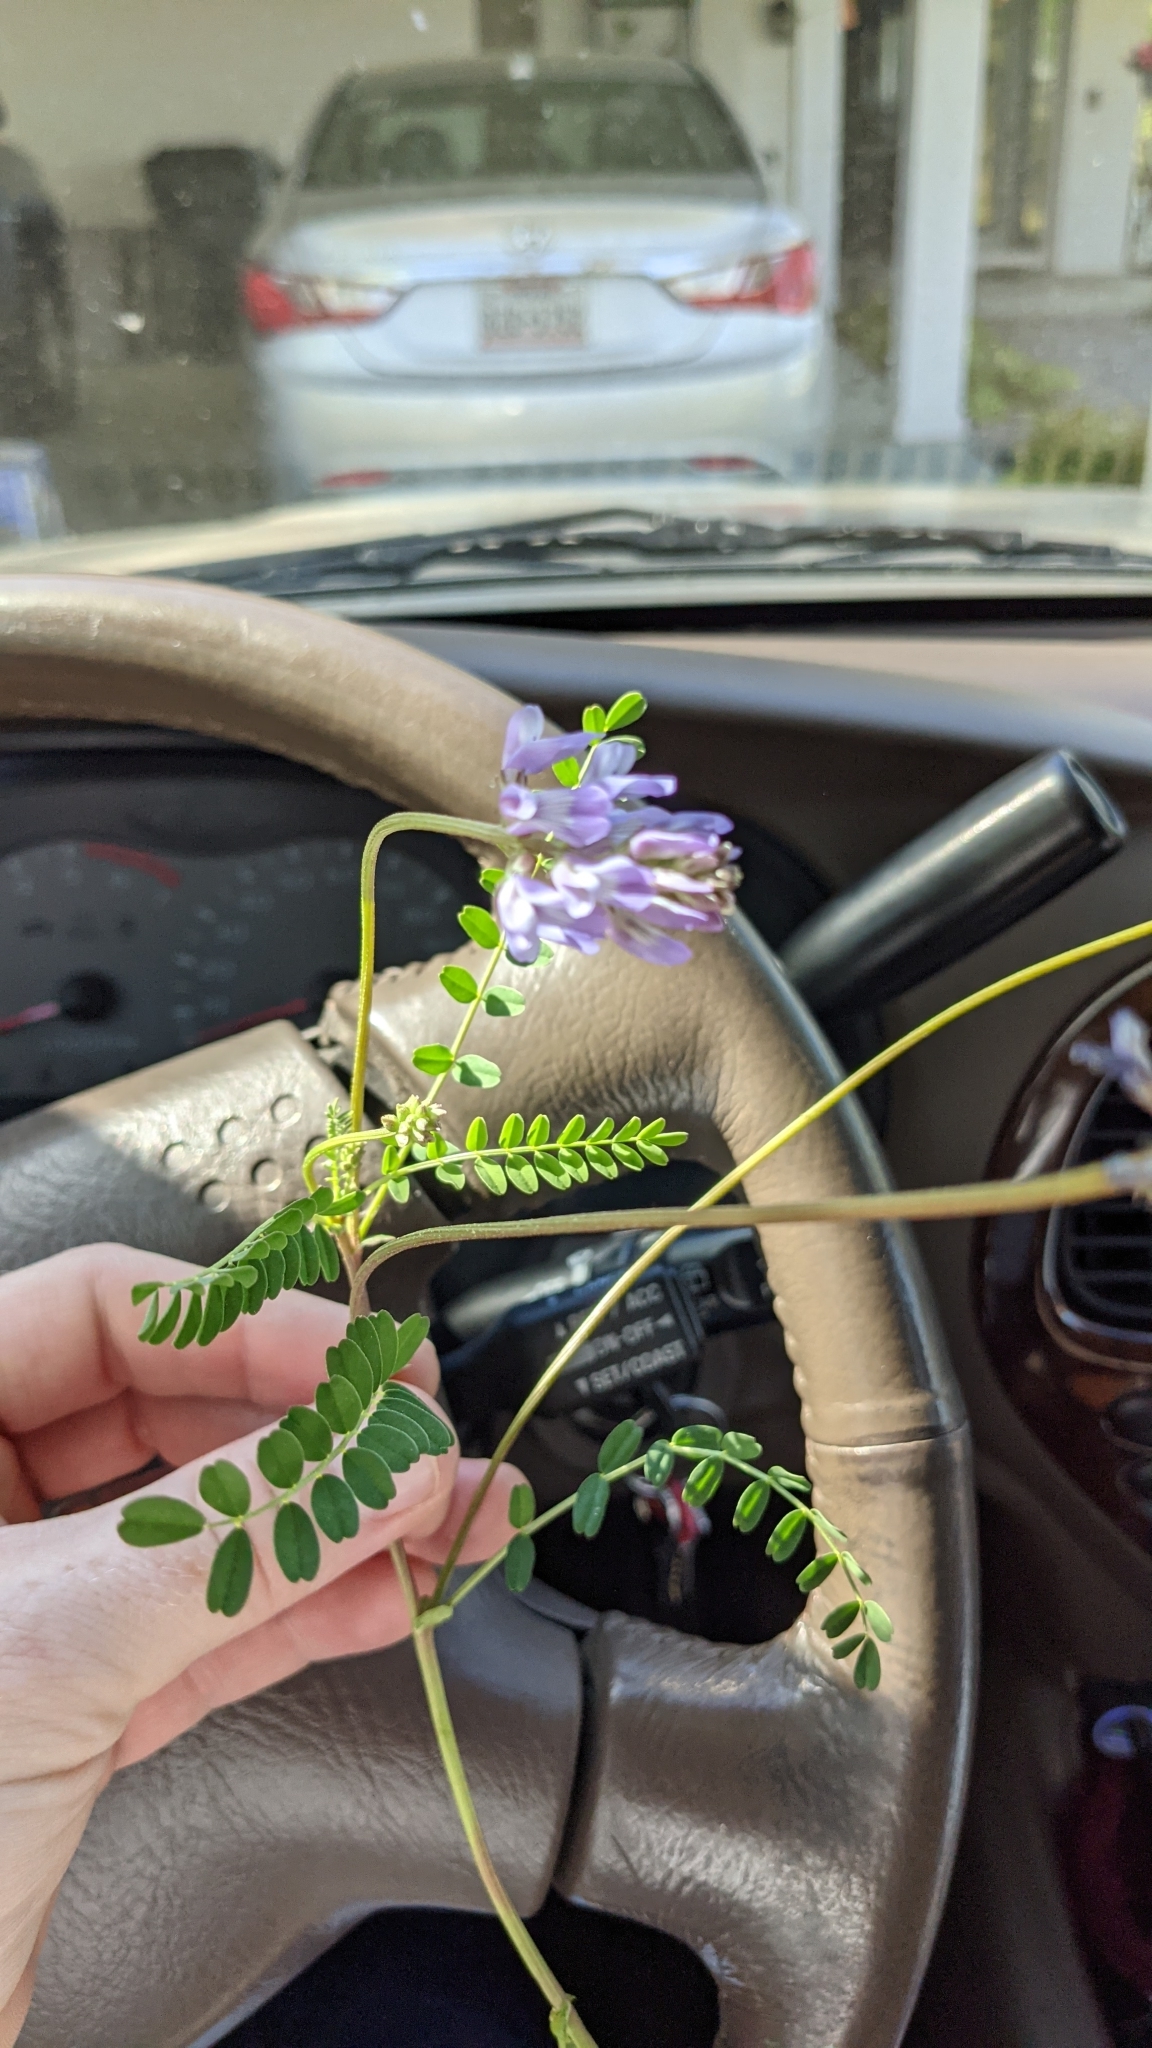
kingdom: Plantae
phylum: Tracheophyta
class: Magnoliopsida
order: Fabales
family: Fabaceae
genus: Astragalus
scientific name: Astragalus distortus
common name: Ozark milk-vetch
